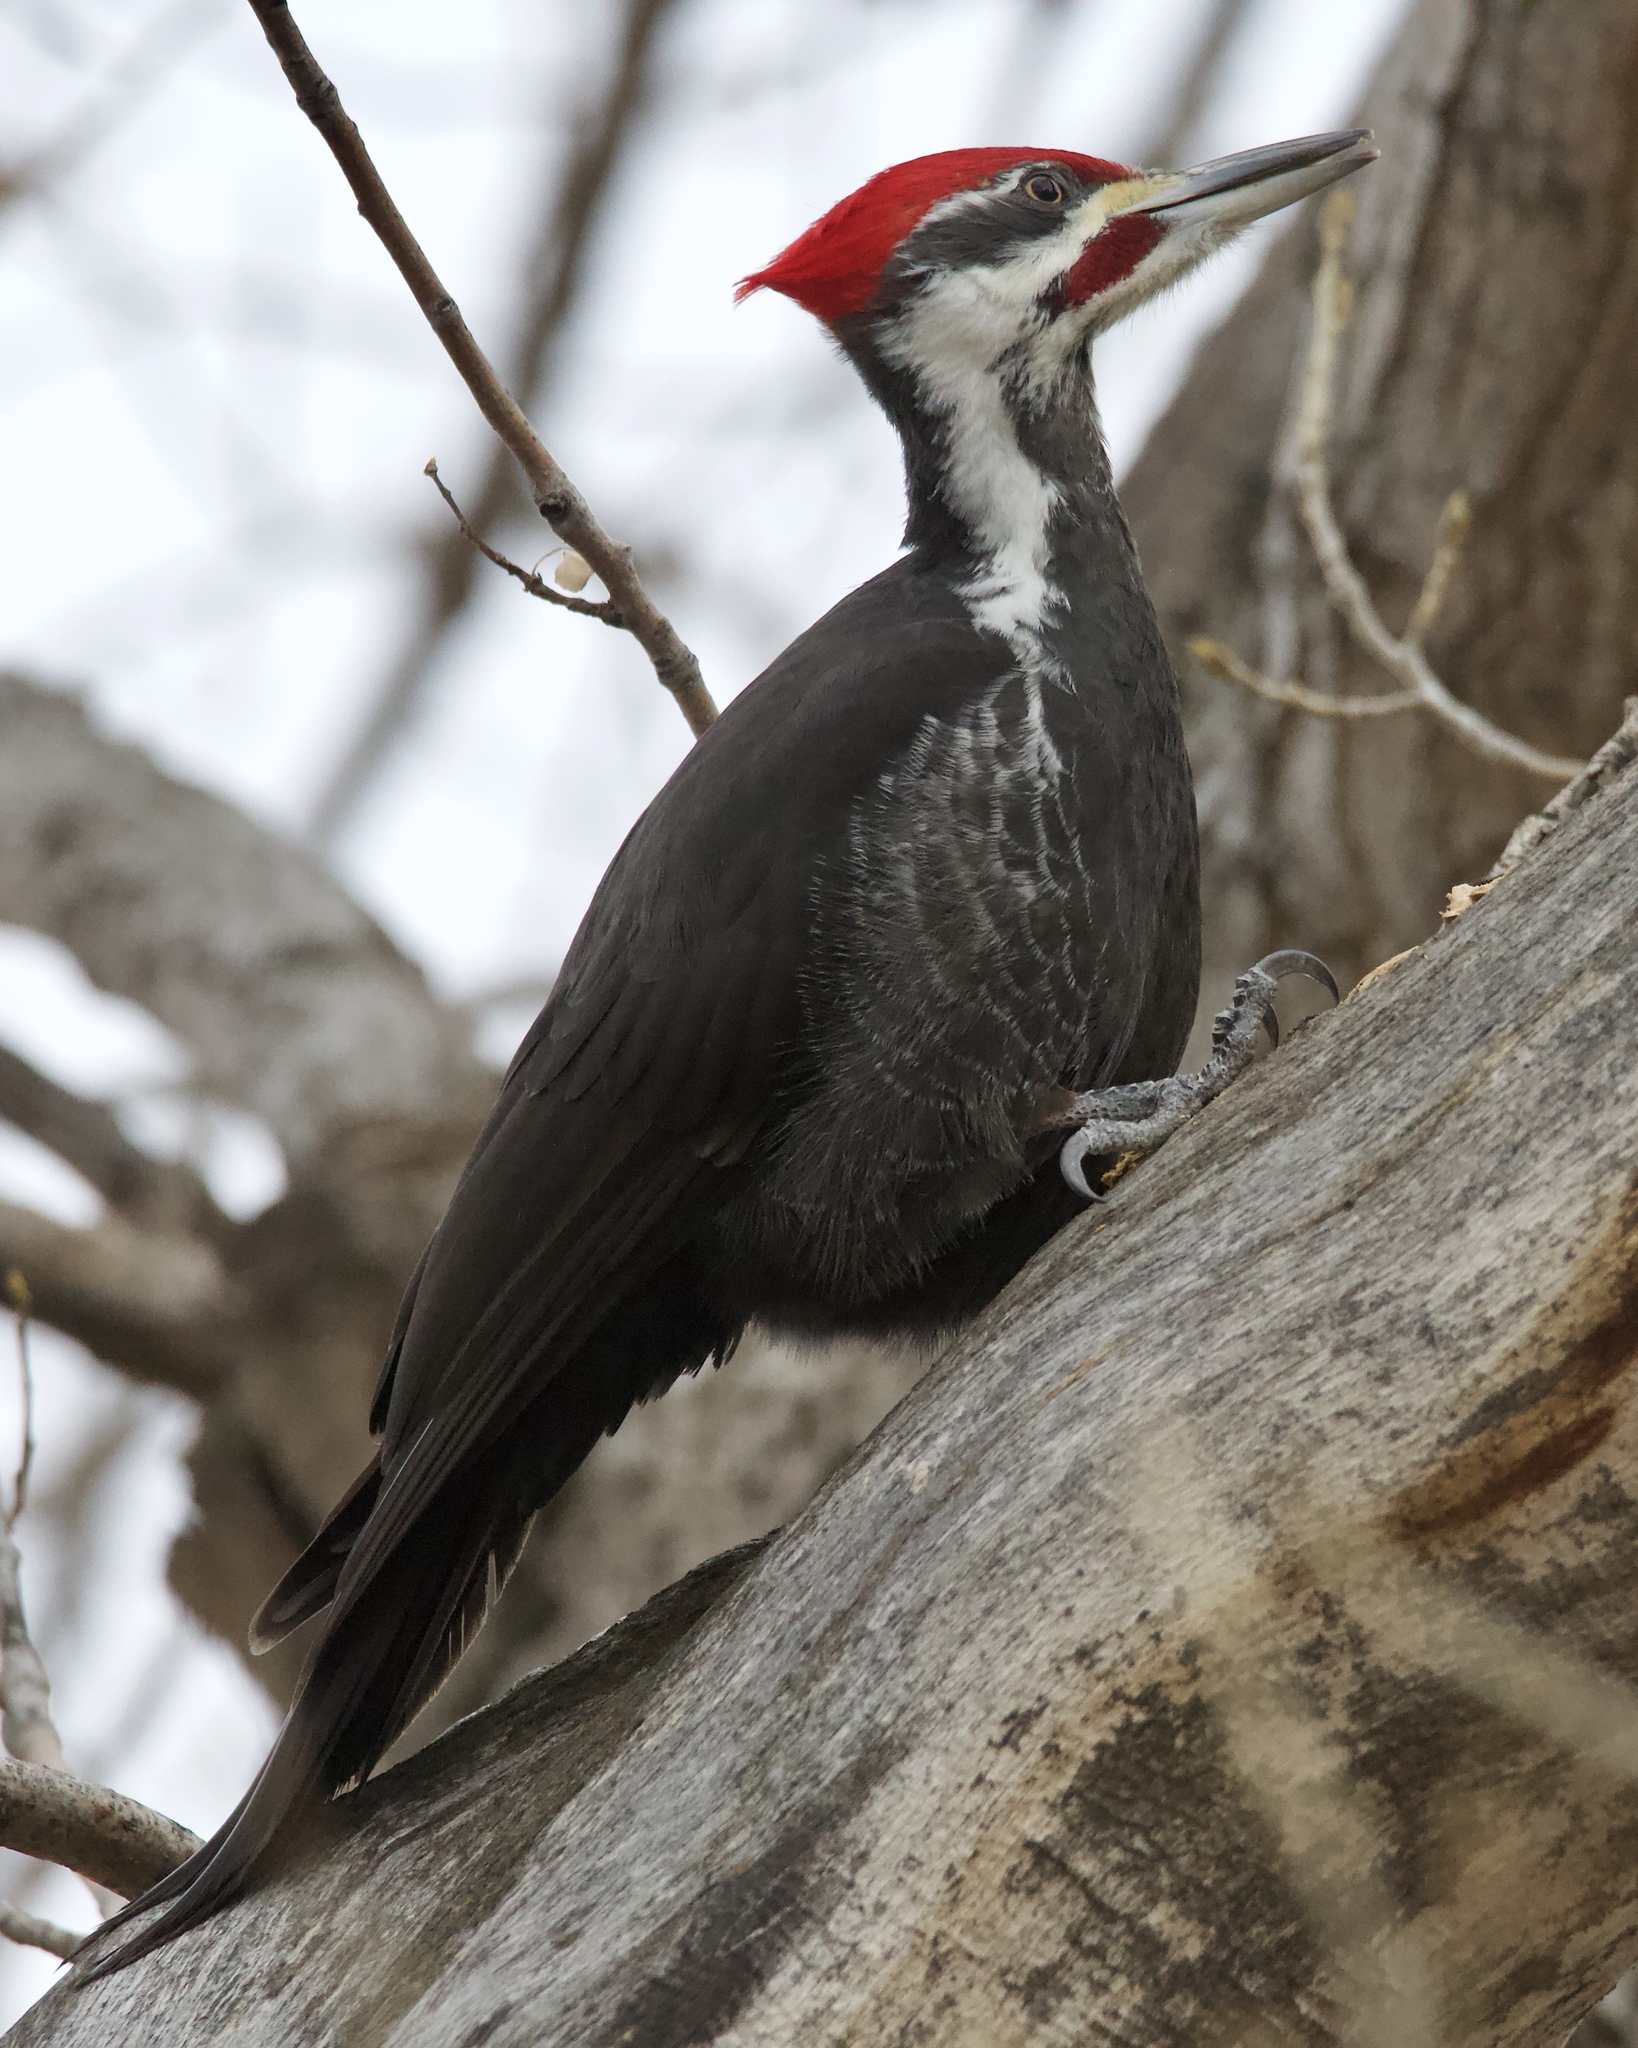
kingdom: Animalia
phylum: Chordata
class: Aves
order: Piciformes
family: Picidae
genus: Dryocopus
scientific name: Dryocopus pileatus
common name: Pileated woodpecker
